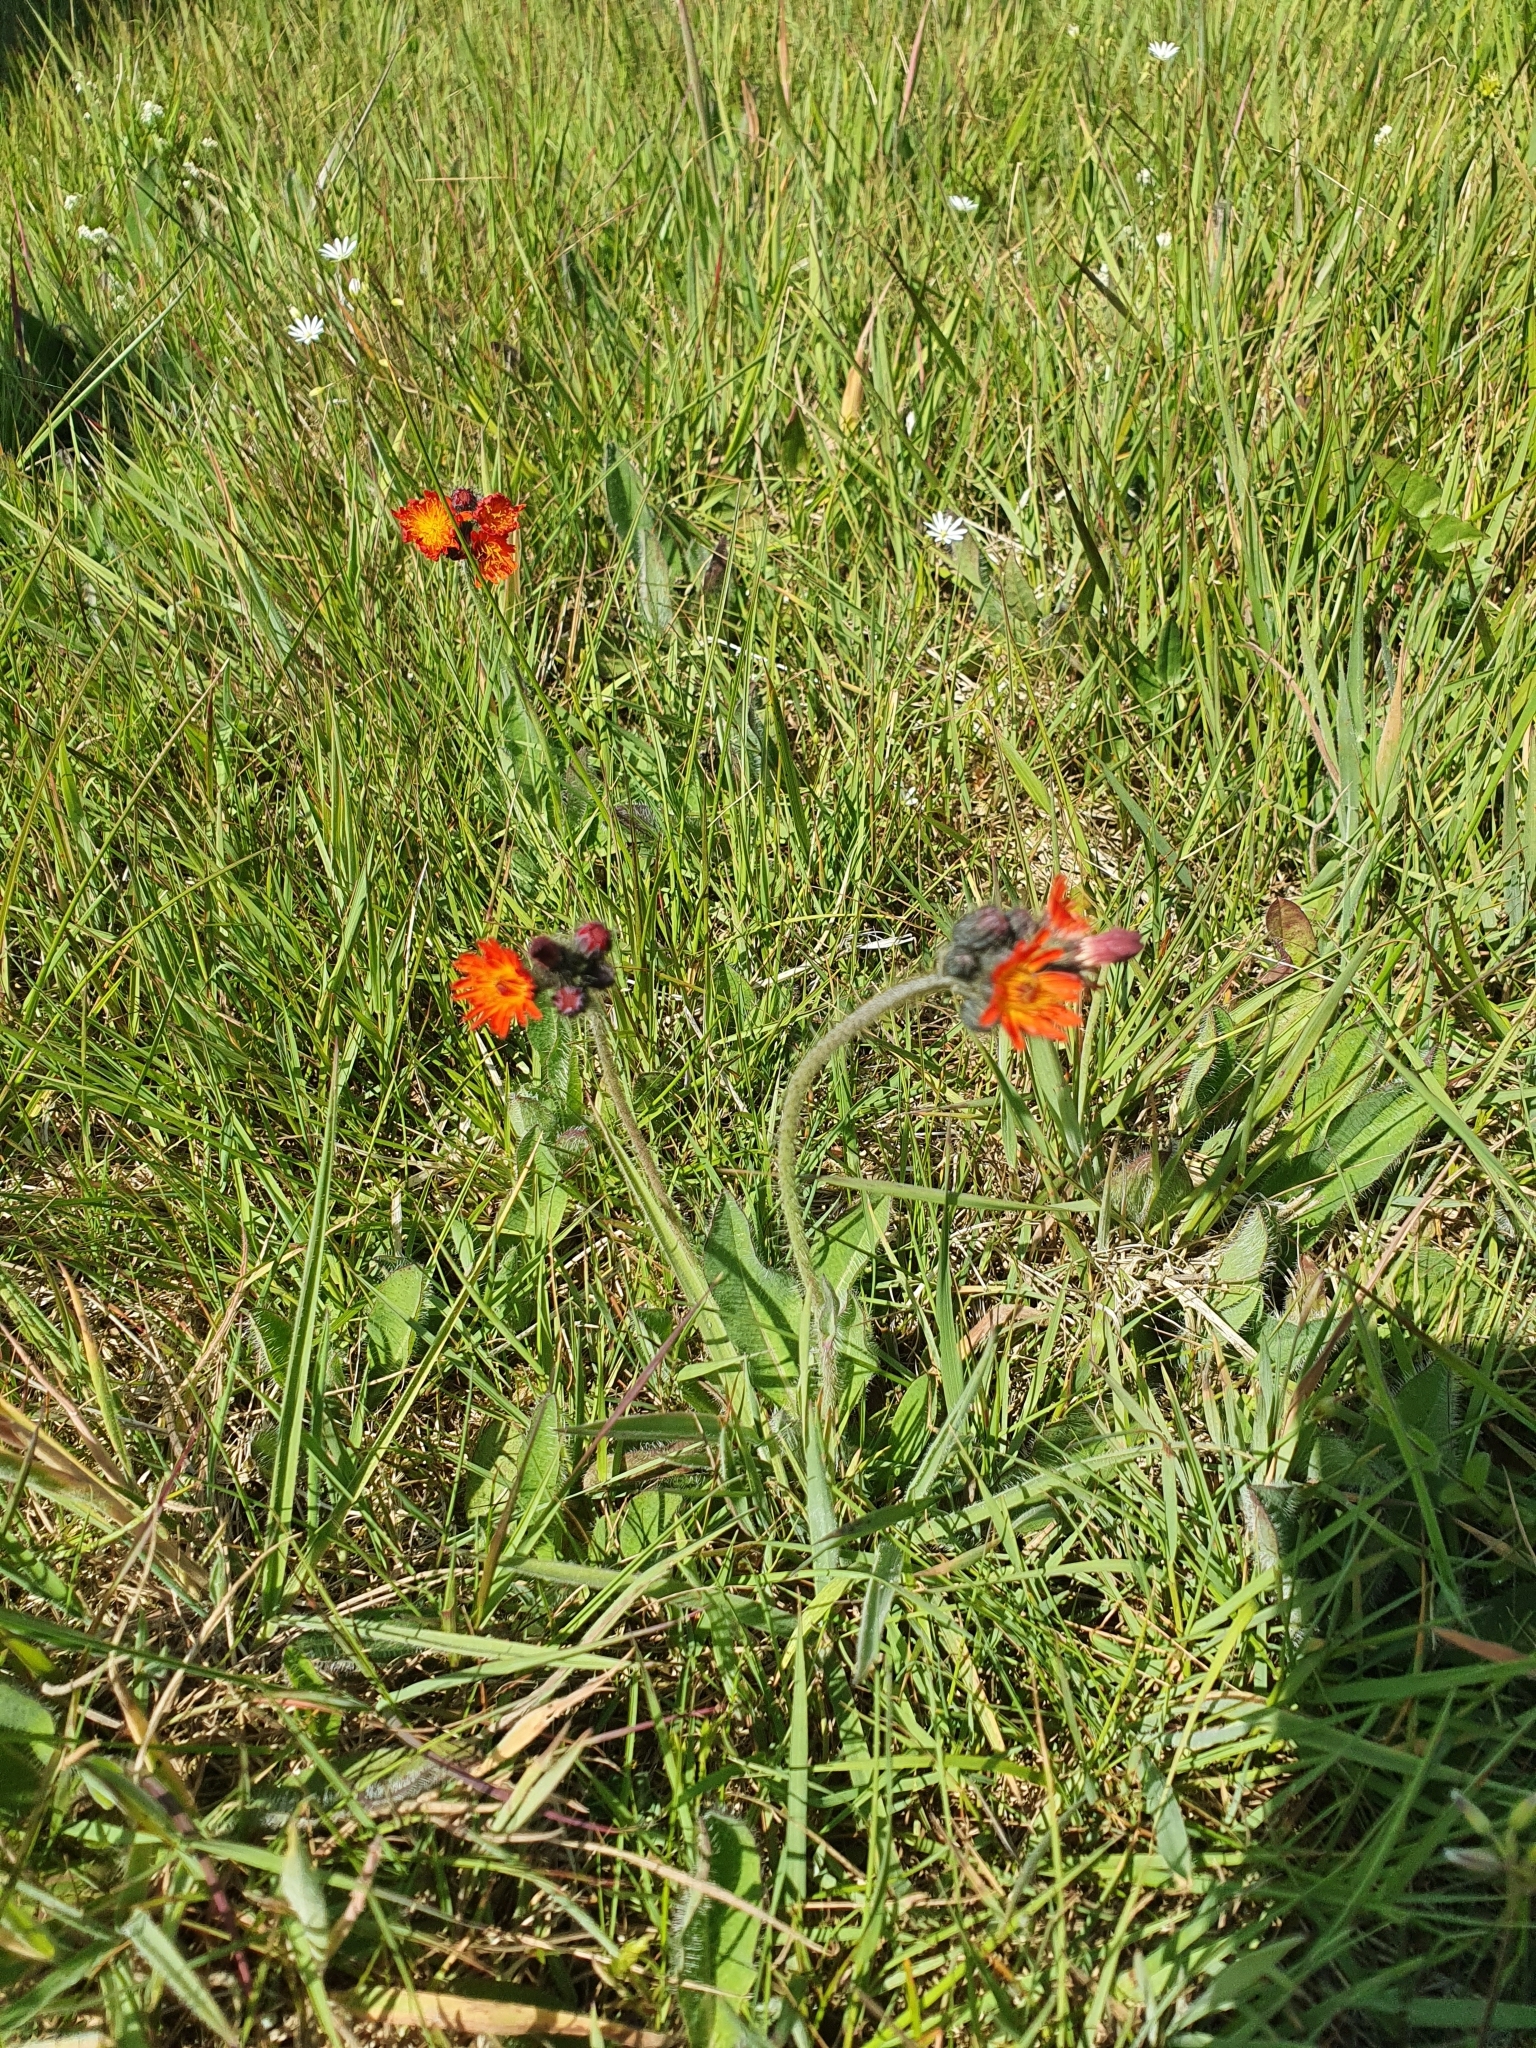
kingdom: Plantae
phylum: Tracheophyta
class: Magnoliopsida
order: Asterales
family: Asteraceae
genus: Pilosella
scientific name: Pilosella aurantiaca
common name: Fox-and-cubs
